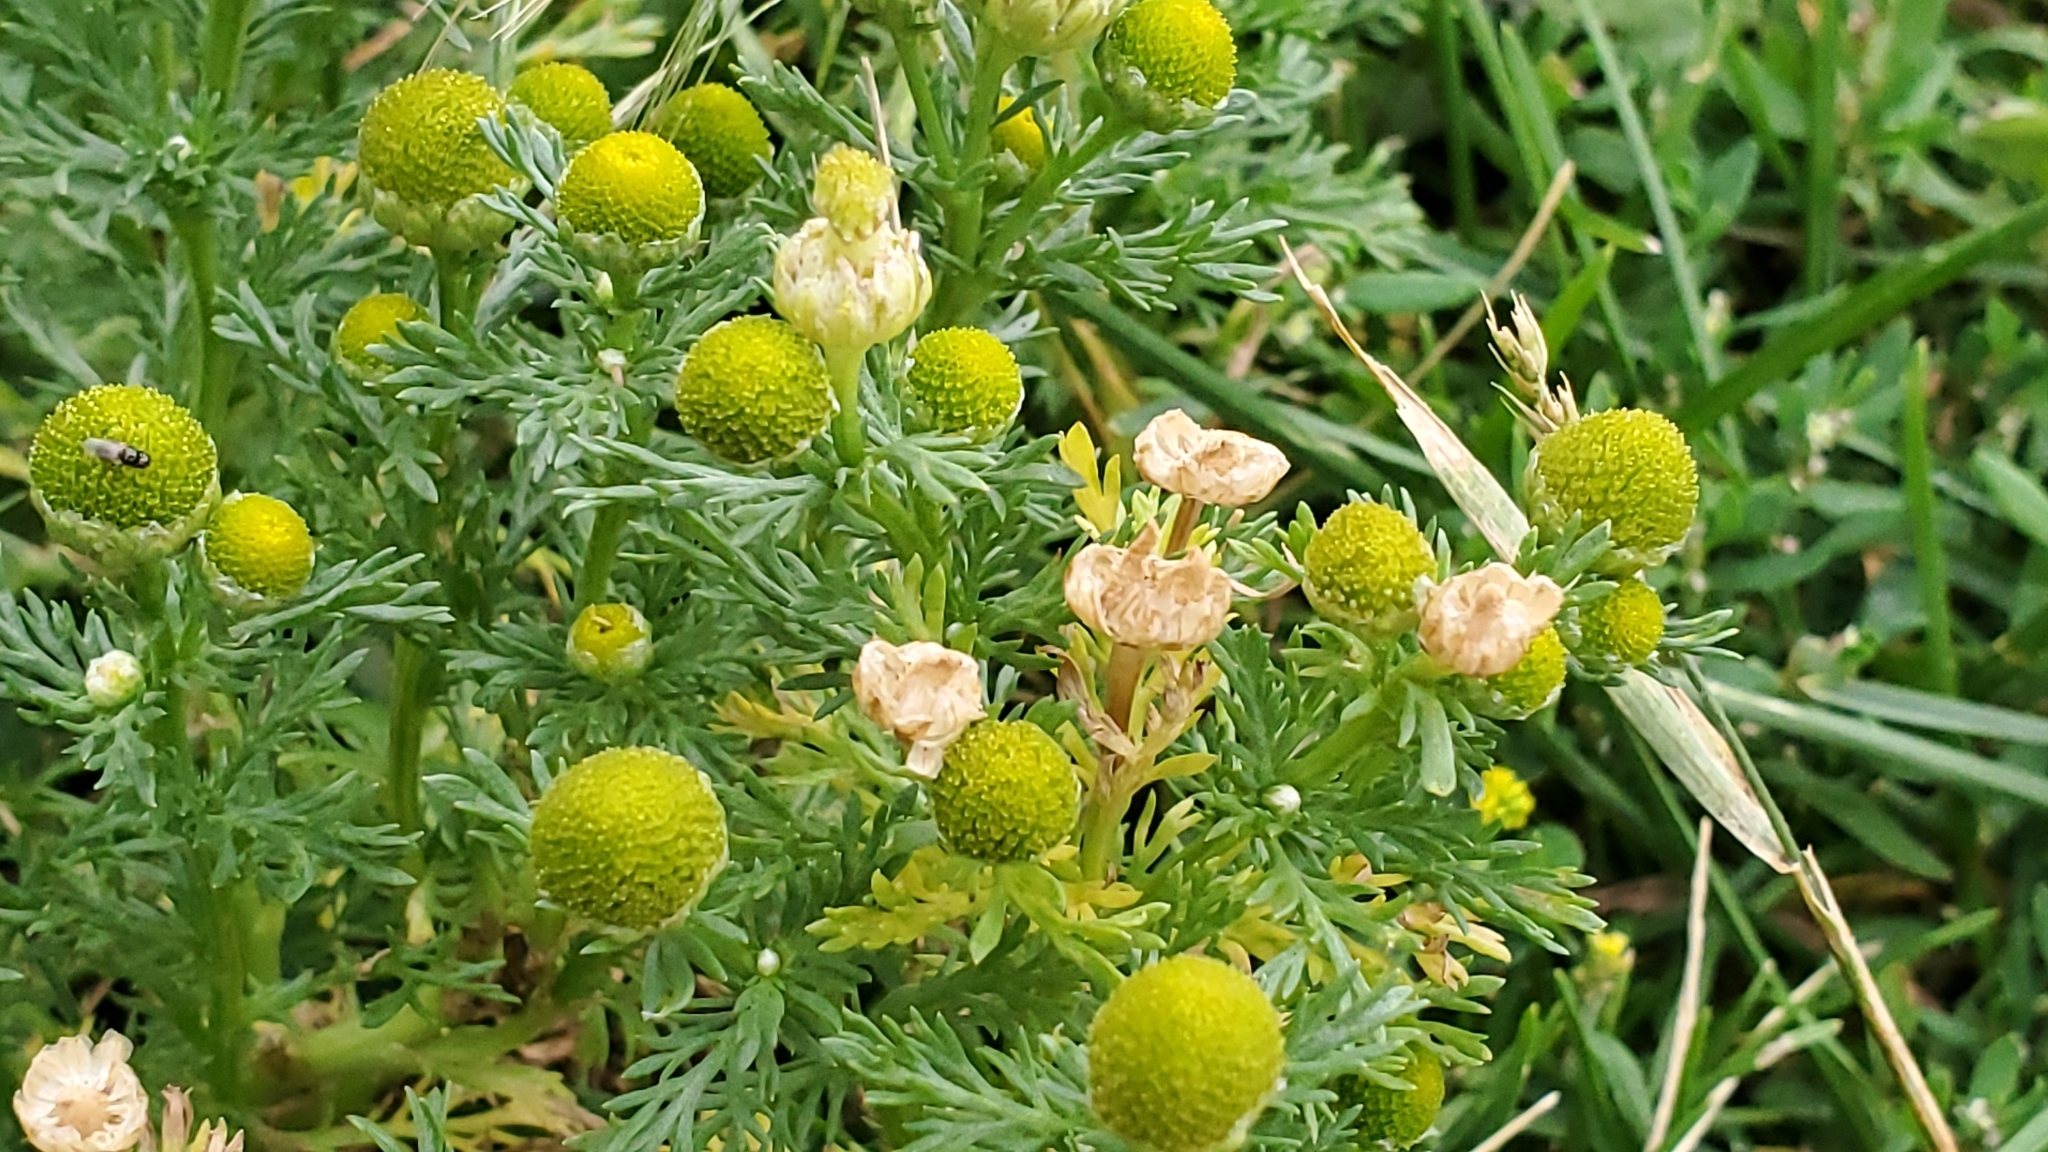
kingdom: Plantae
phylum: Tracheophyta
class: Magnoliopsida
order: Asterales
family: Asteraceae
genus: Matricaria
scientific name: Matricaria discoidea
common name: Disc mayweed
